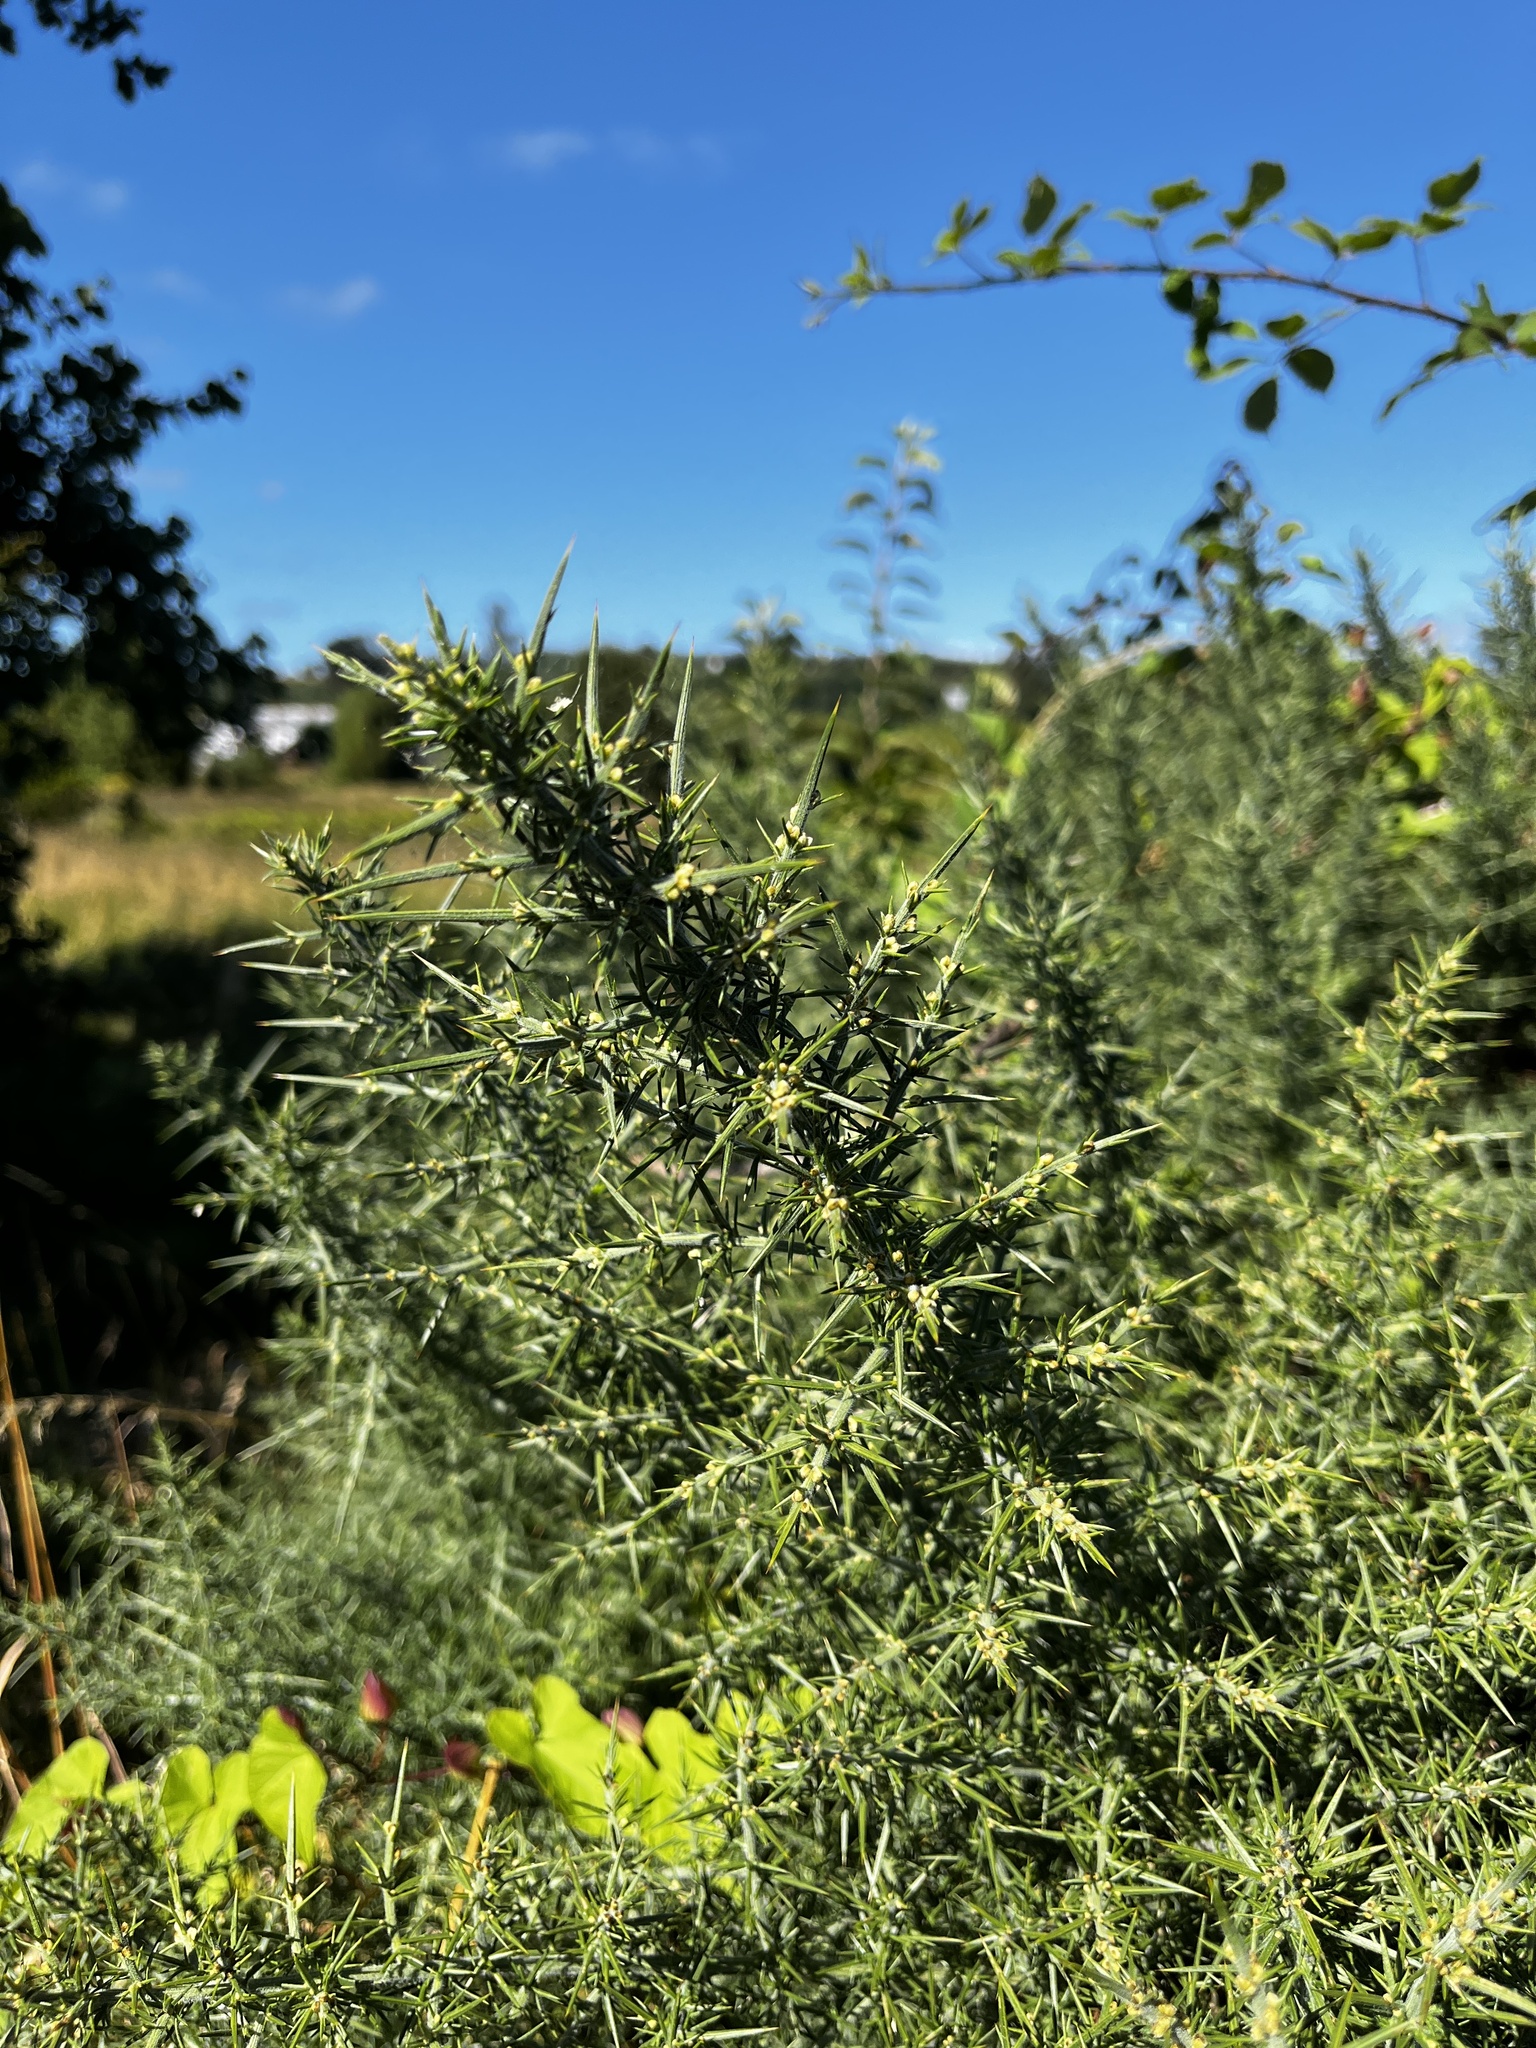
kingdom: Plantae
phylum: Tracheophyta
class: Magnoliopsida
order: Fabales
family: Fabaceae
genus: Ulex
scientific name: Ulex europaeus
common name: Common gorse
